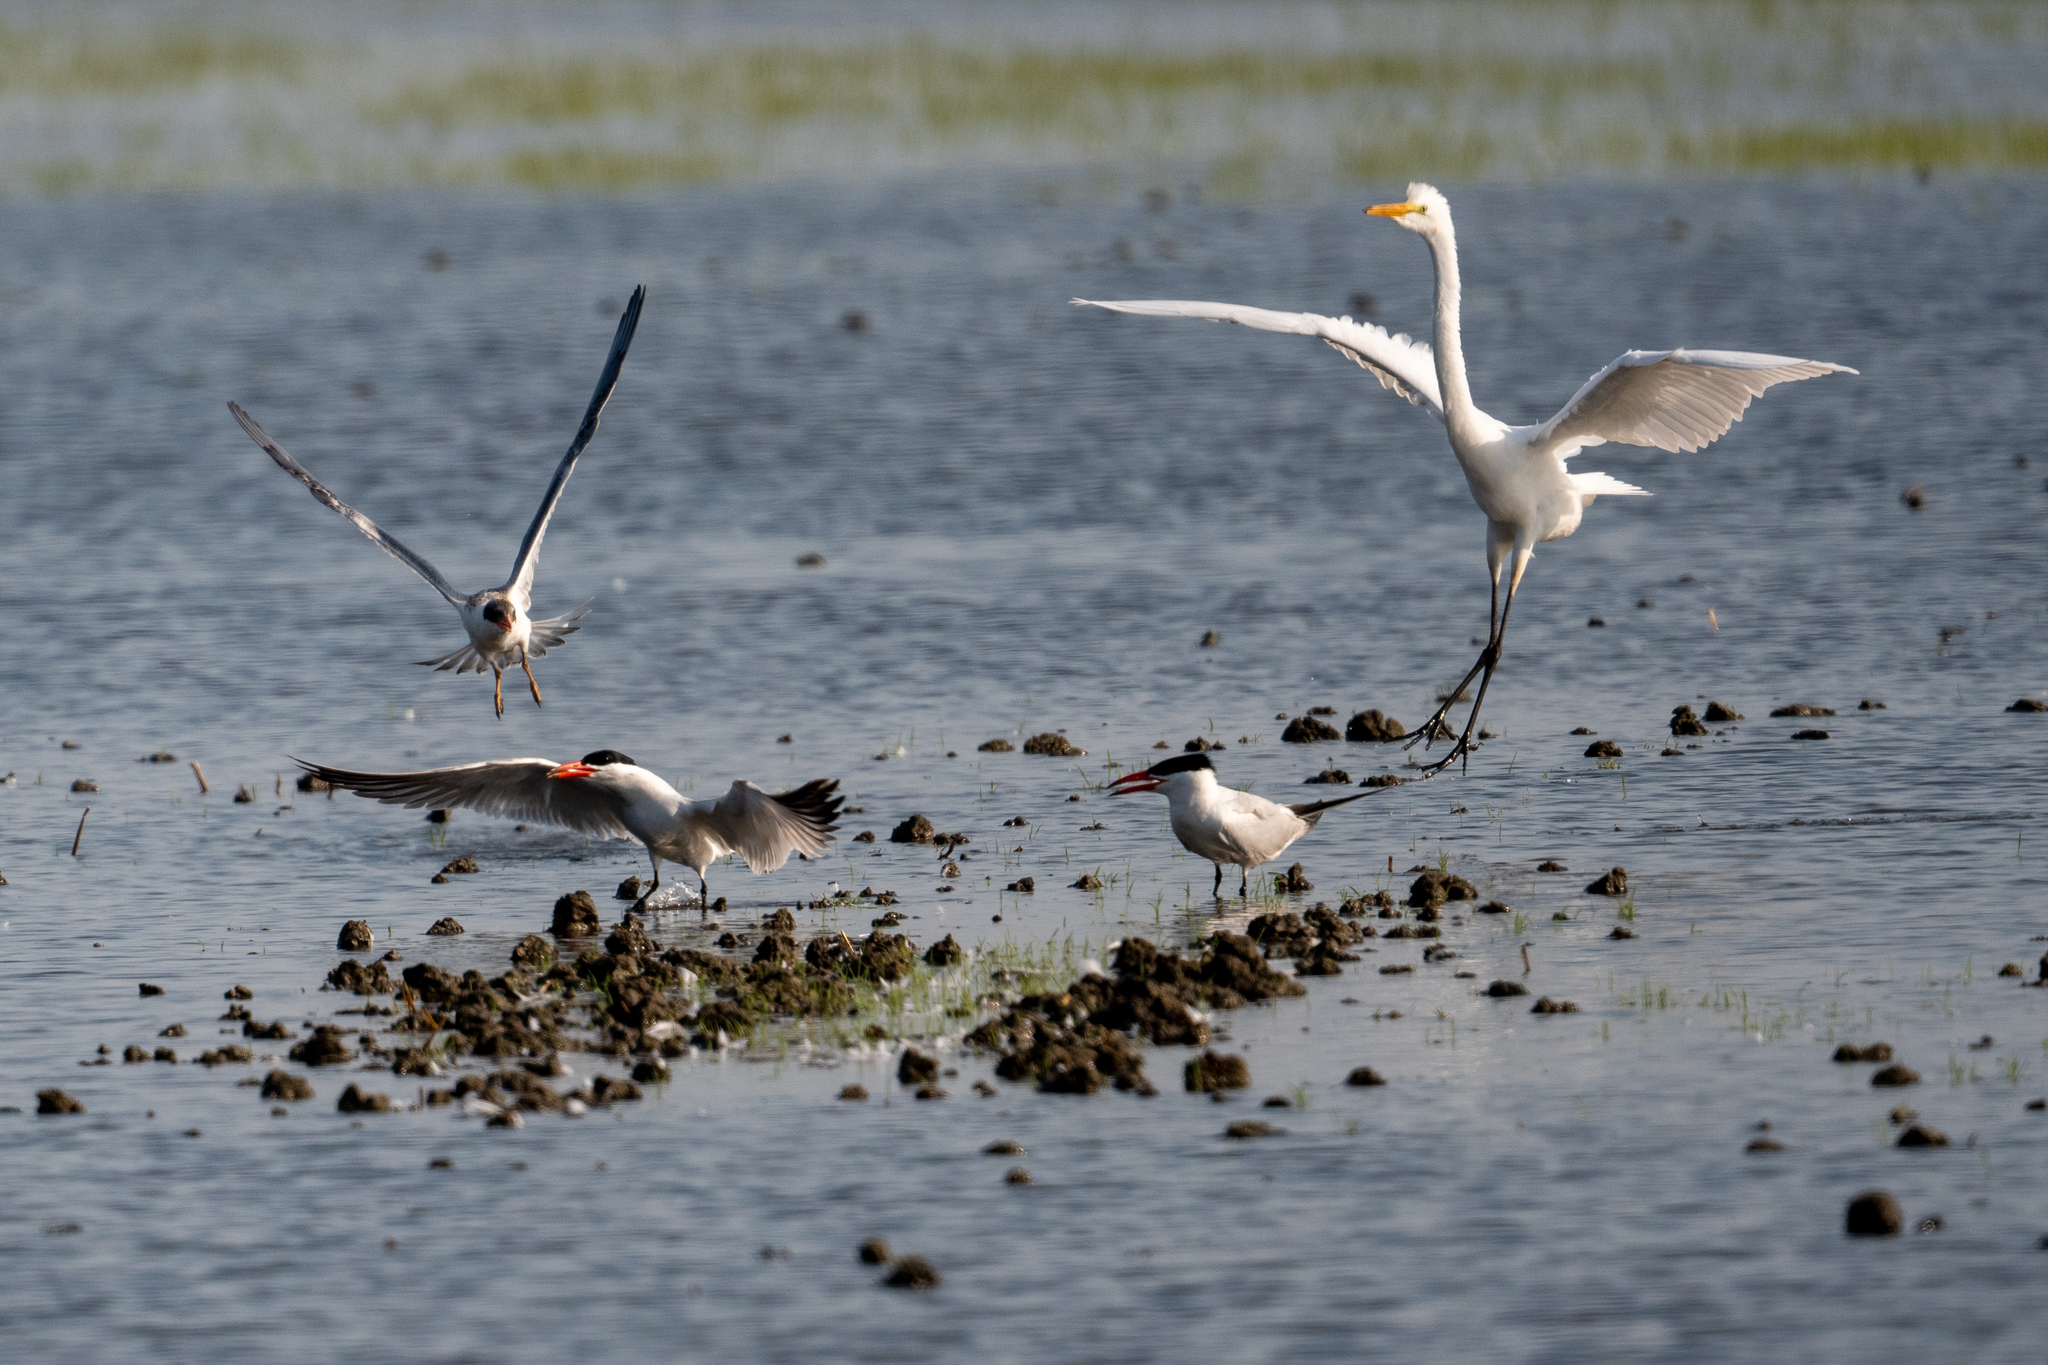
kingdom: Animalia
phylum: Chordata
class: Aves
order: Charadriiformes
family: Laridae
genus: Hydroprogne
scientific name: Hydroprogne caspia
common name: Caspian tern
